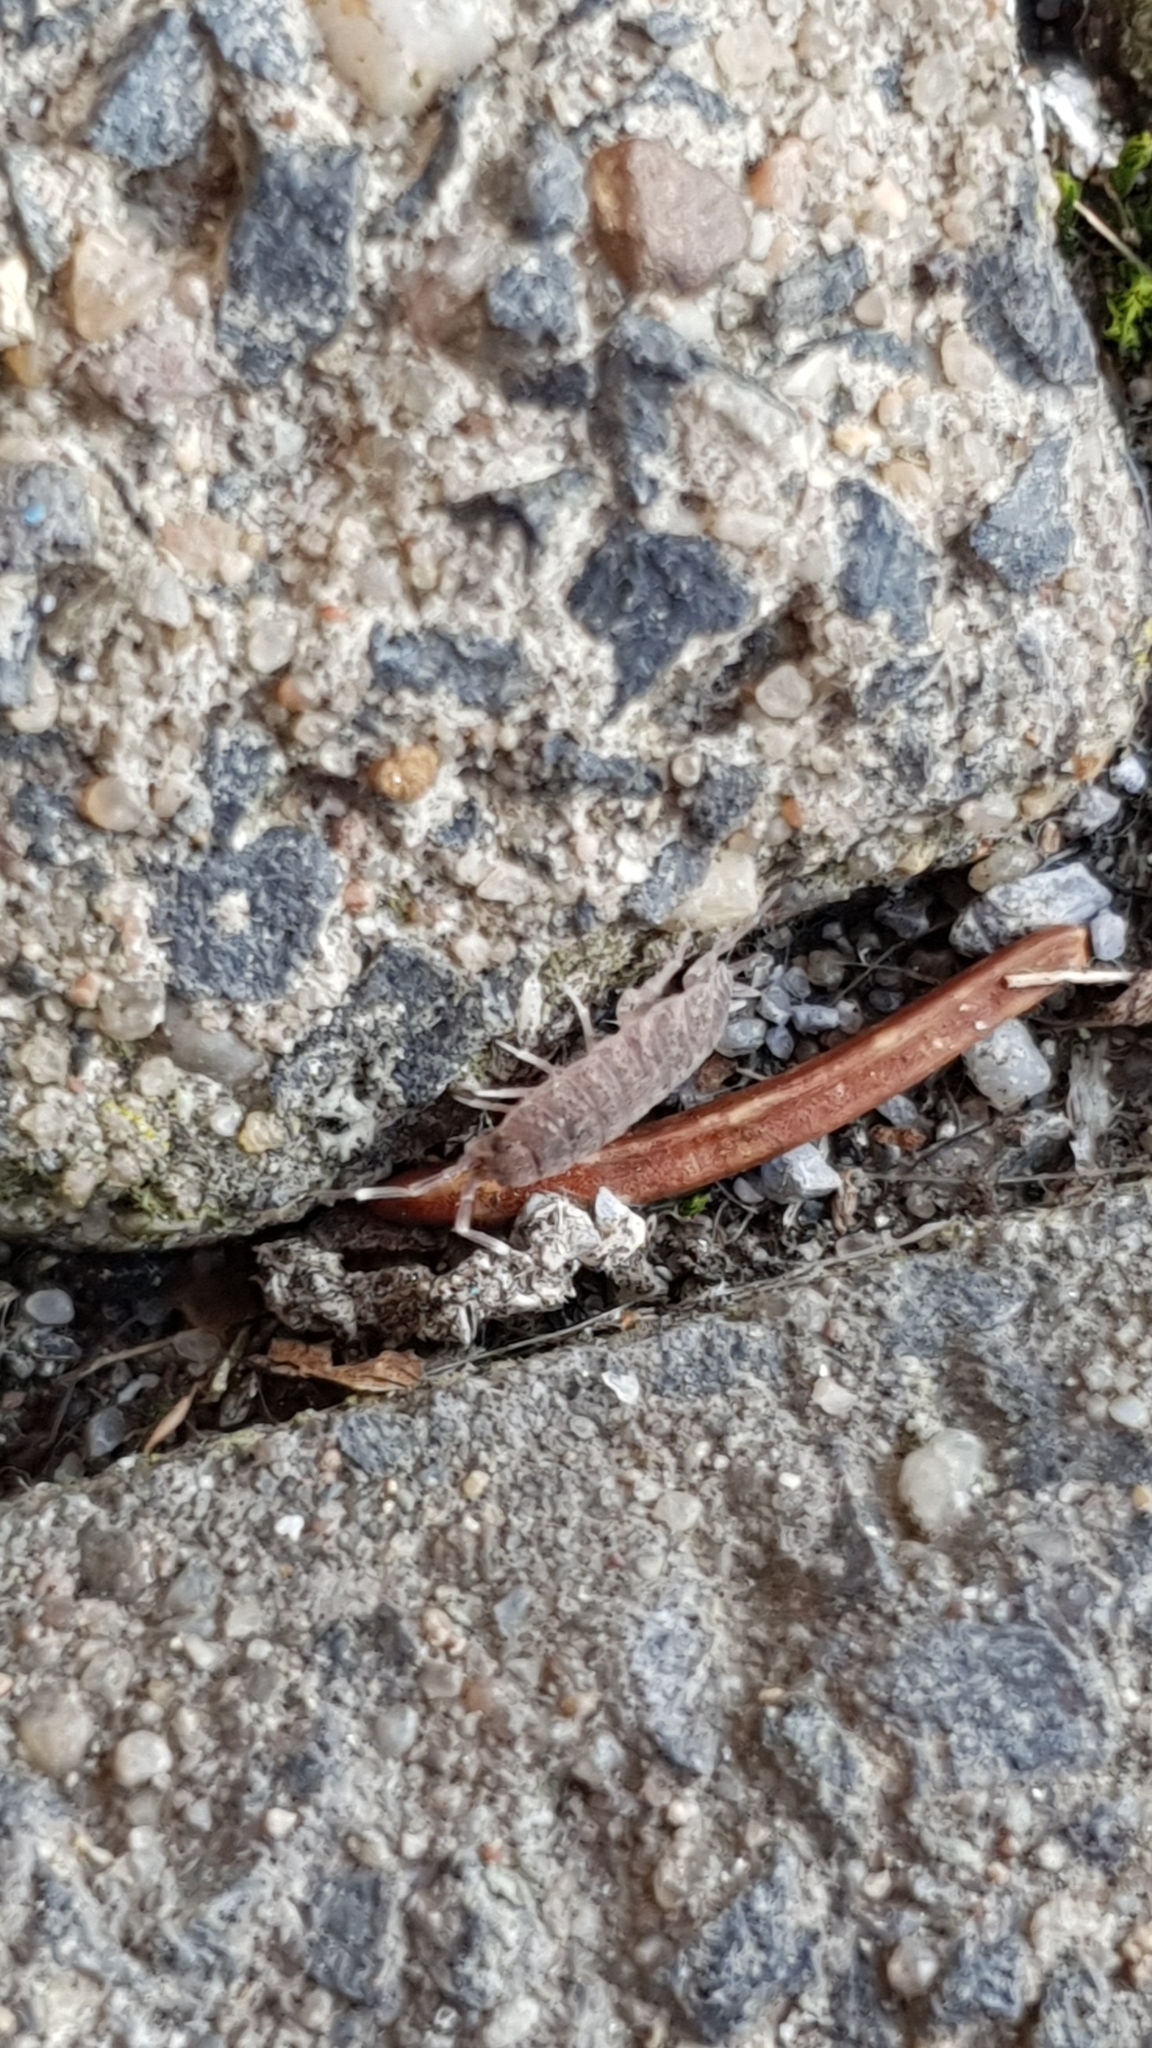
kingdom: Animalia
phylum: Arthropoda
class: Malacostraca
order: Isopoda
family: Porcellionidae
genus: Porcellionides
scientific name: Porcellionides pruinosus
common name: Plum woodlouse
